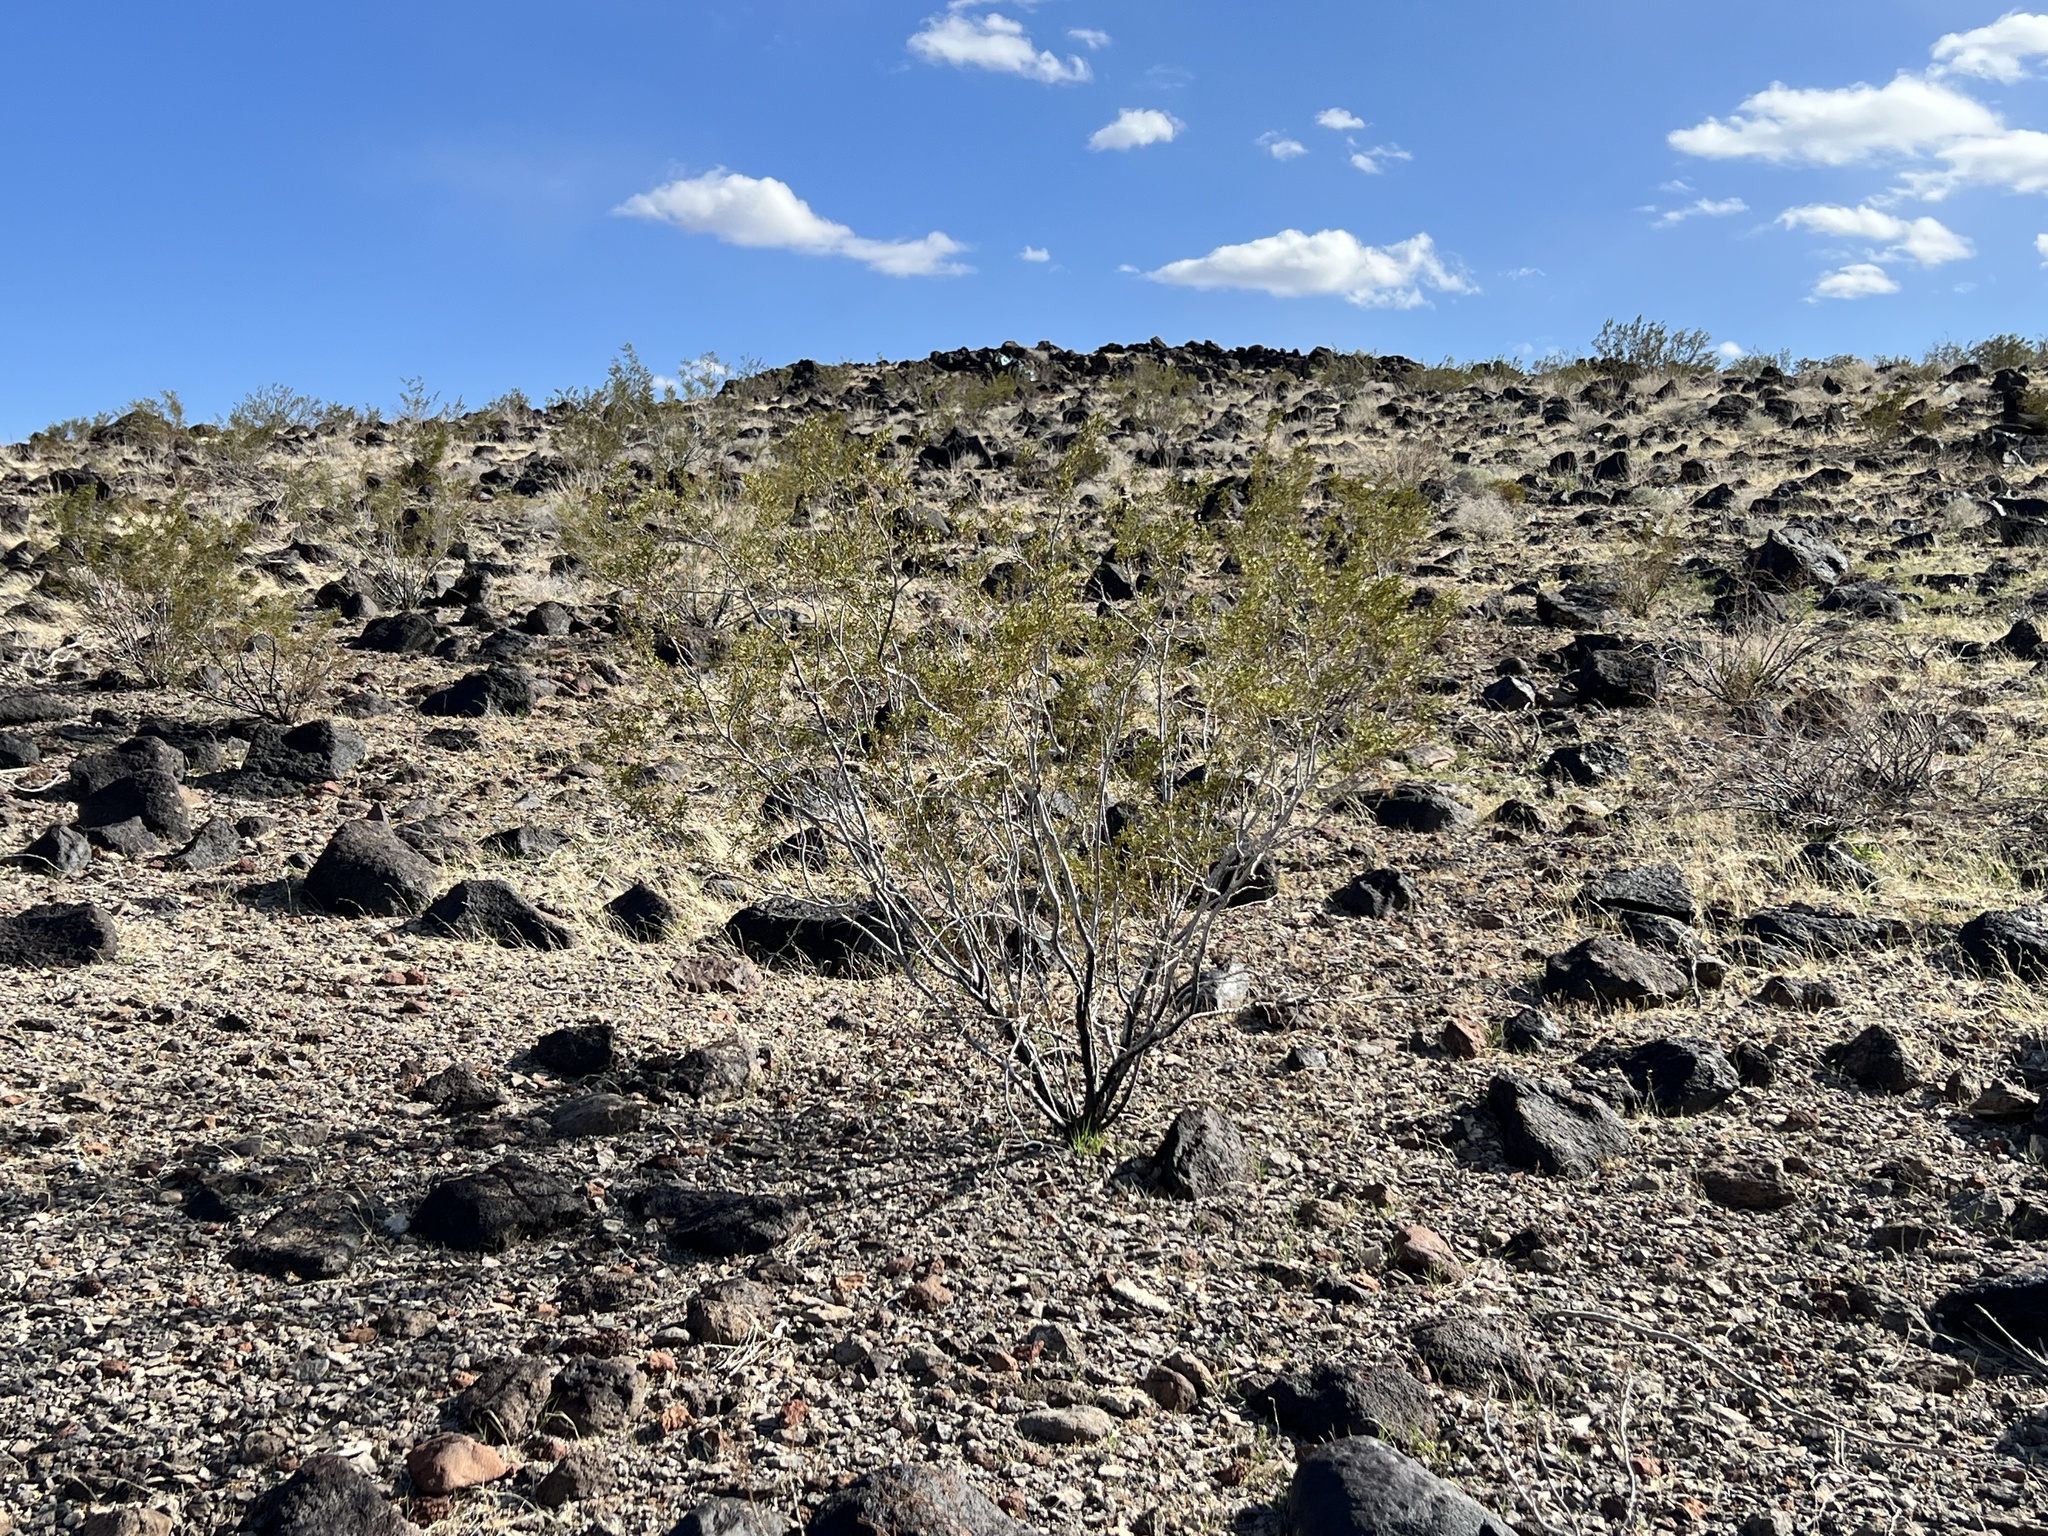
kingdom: Plantae
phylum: Tracheophyta
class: Magnoliopsida
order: Zygophyllales
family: Zygophyllaceae
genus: Larrea
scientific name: Larrea tridentata
